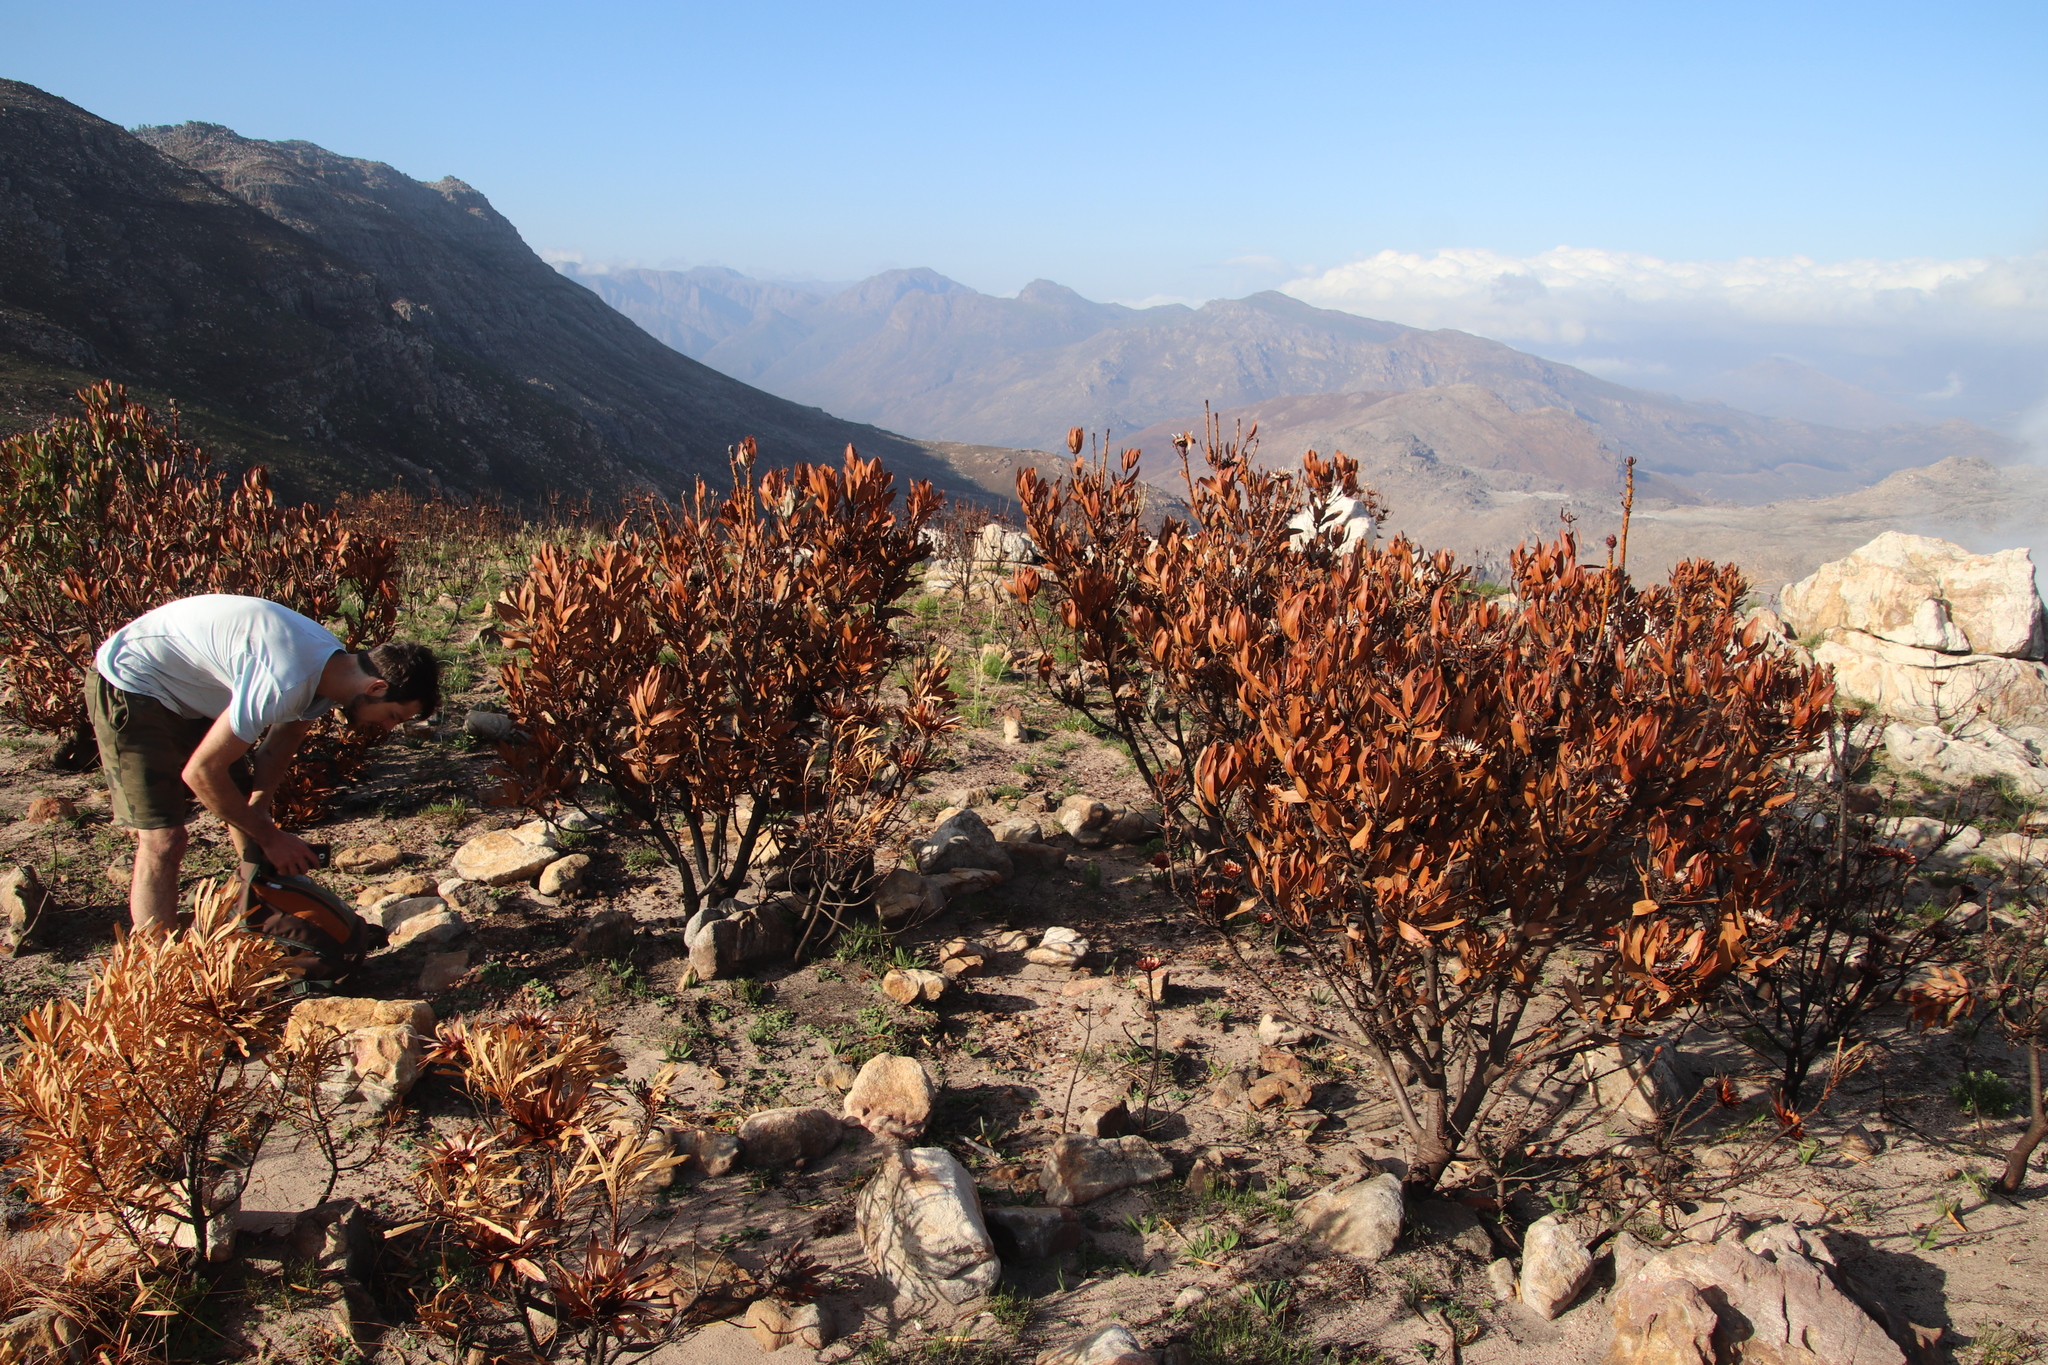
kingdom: Plantae
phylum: Tracheophyta
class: Magnoliopsida
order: Proteales
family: Proteaceae
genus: Protea
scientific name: Protea laurifolia
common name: Grey-leaf sugarbsh
